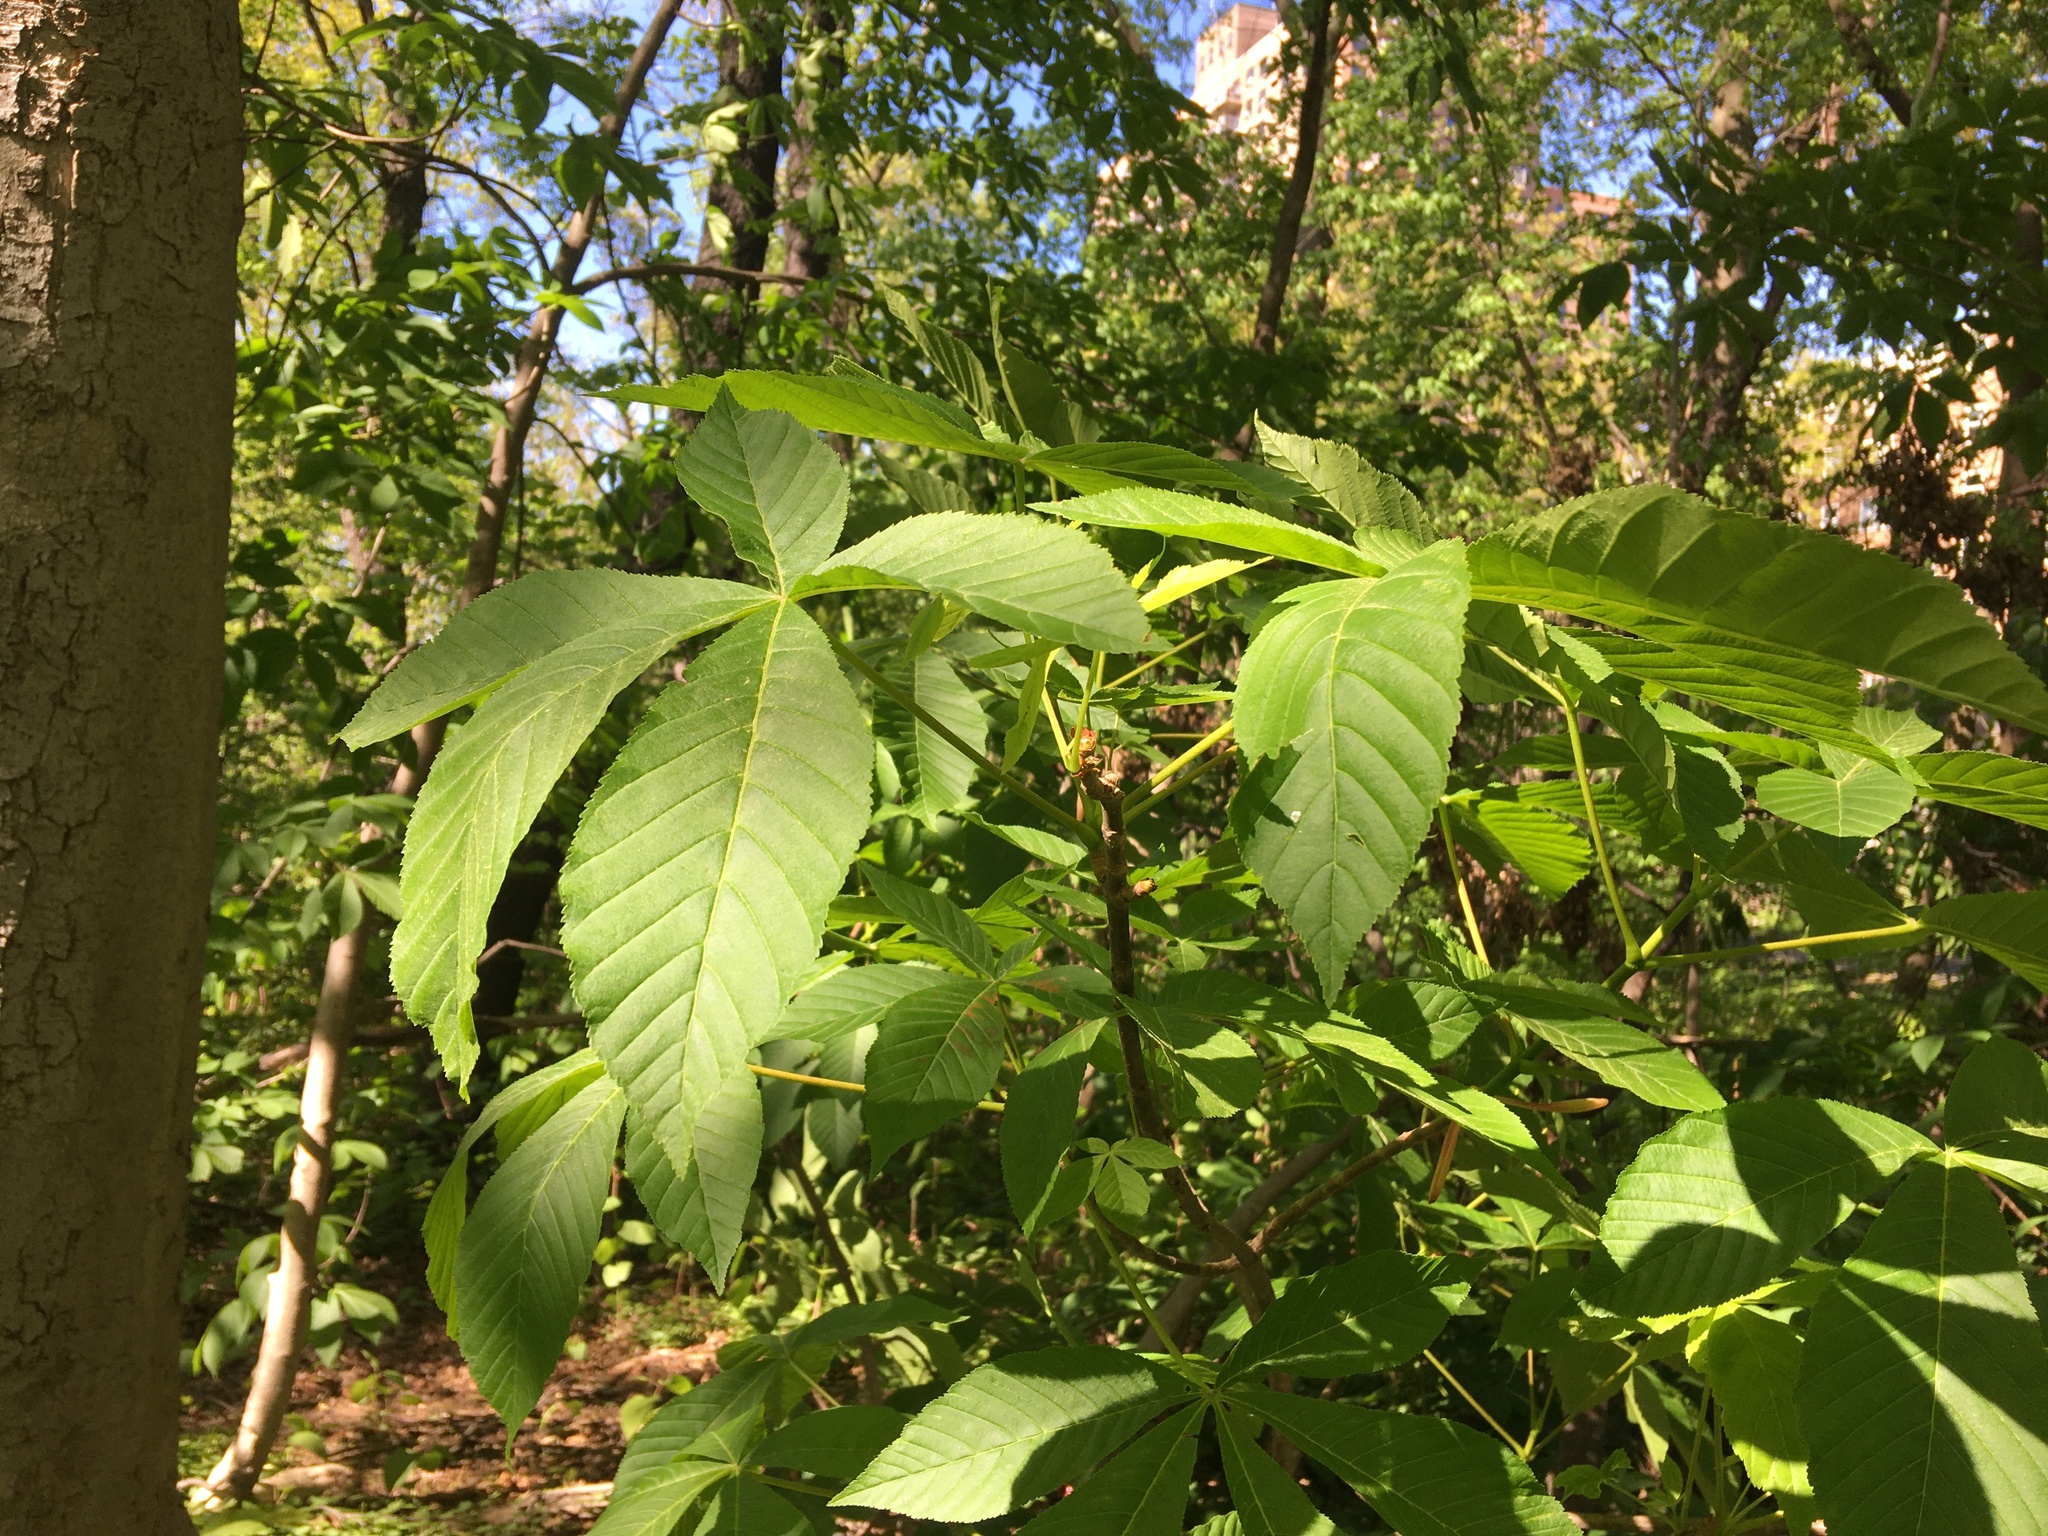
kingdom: Plantae
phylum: Tracheophyta
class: Magnoliopsida
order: Sapindales
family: Sapindaceae
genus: Aesculus
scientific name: Aesculus flava
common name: Yellow buckeye
